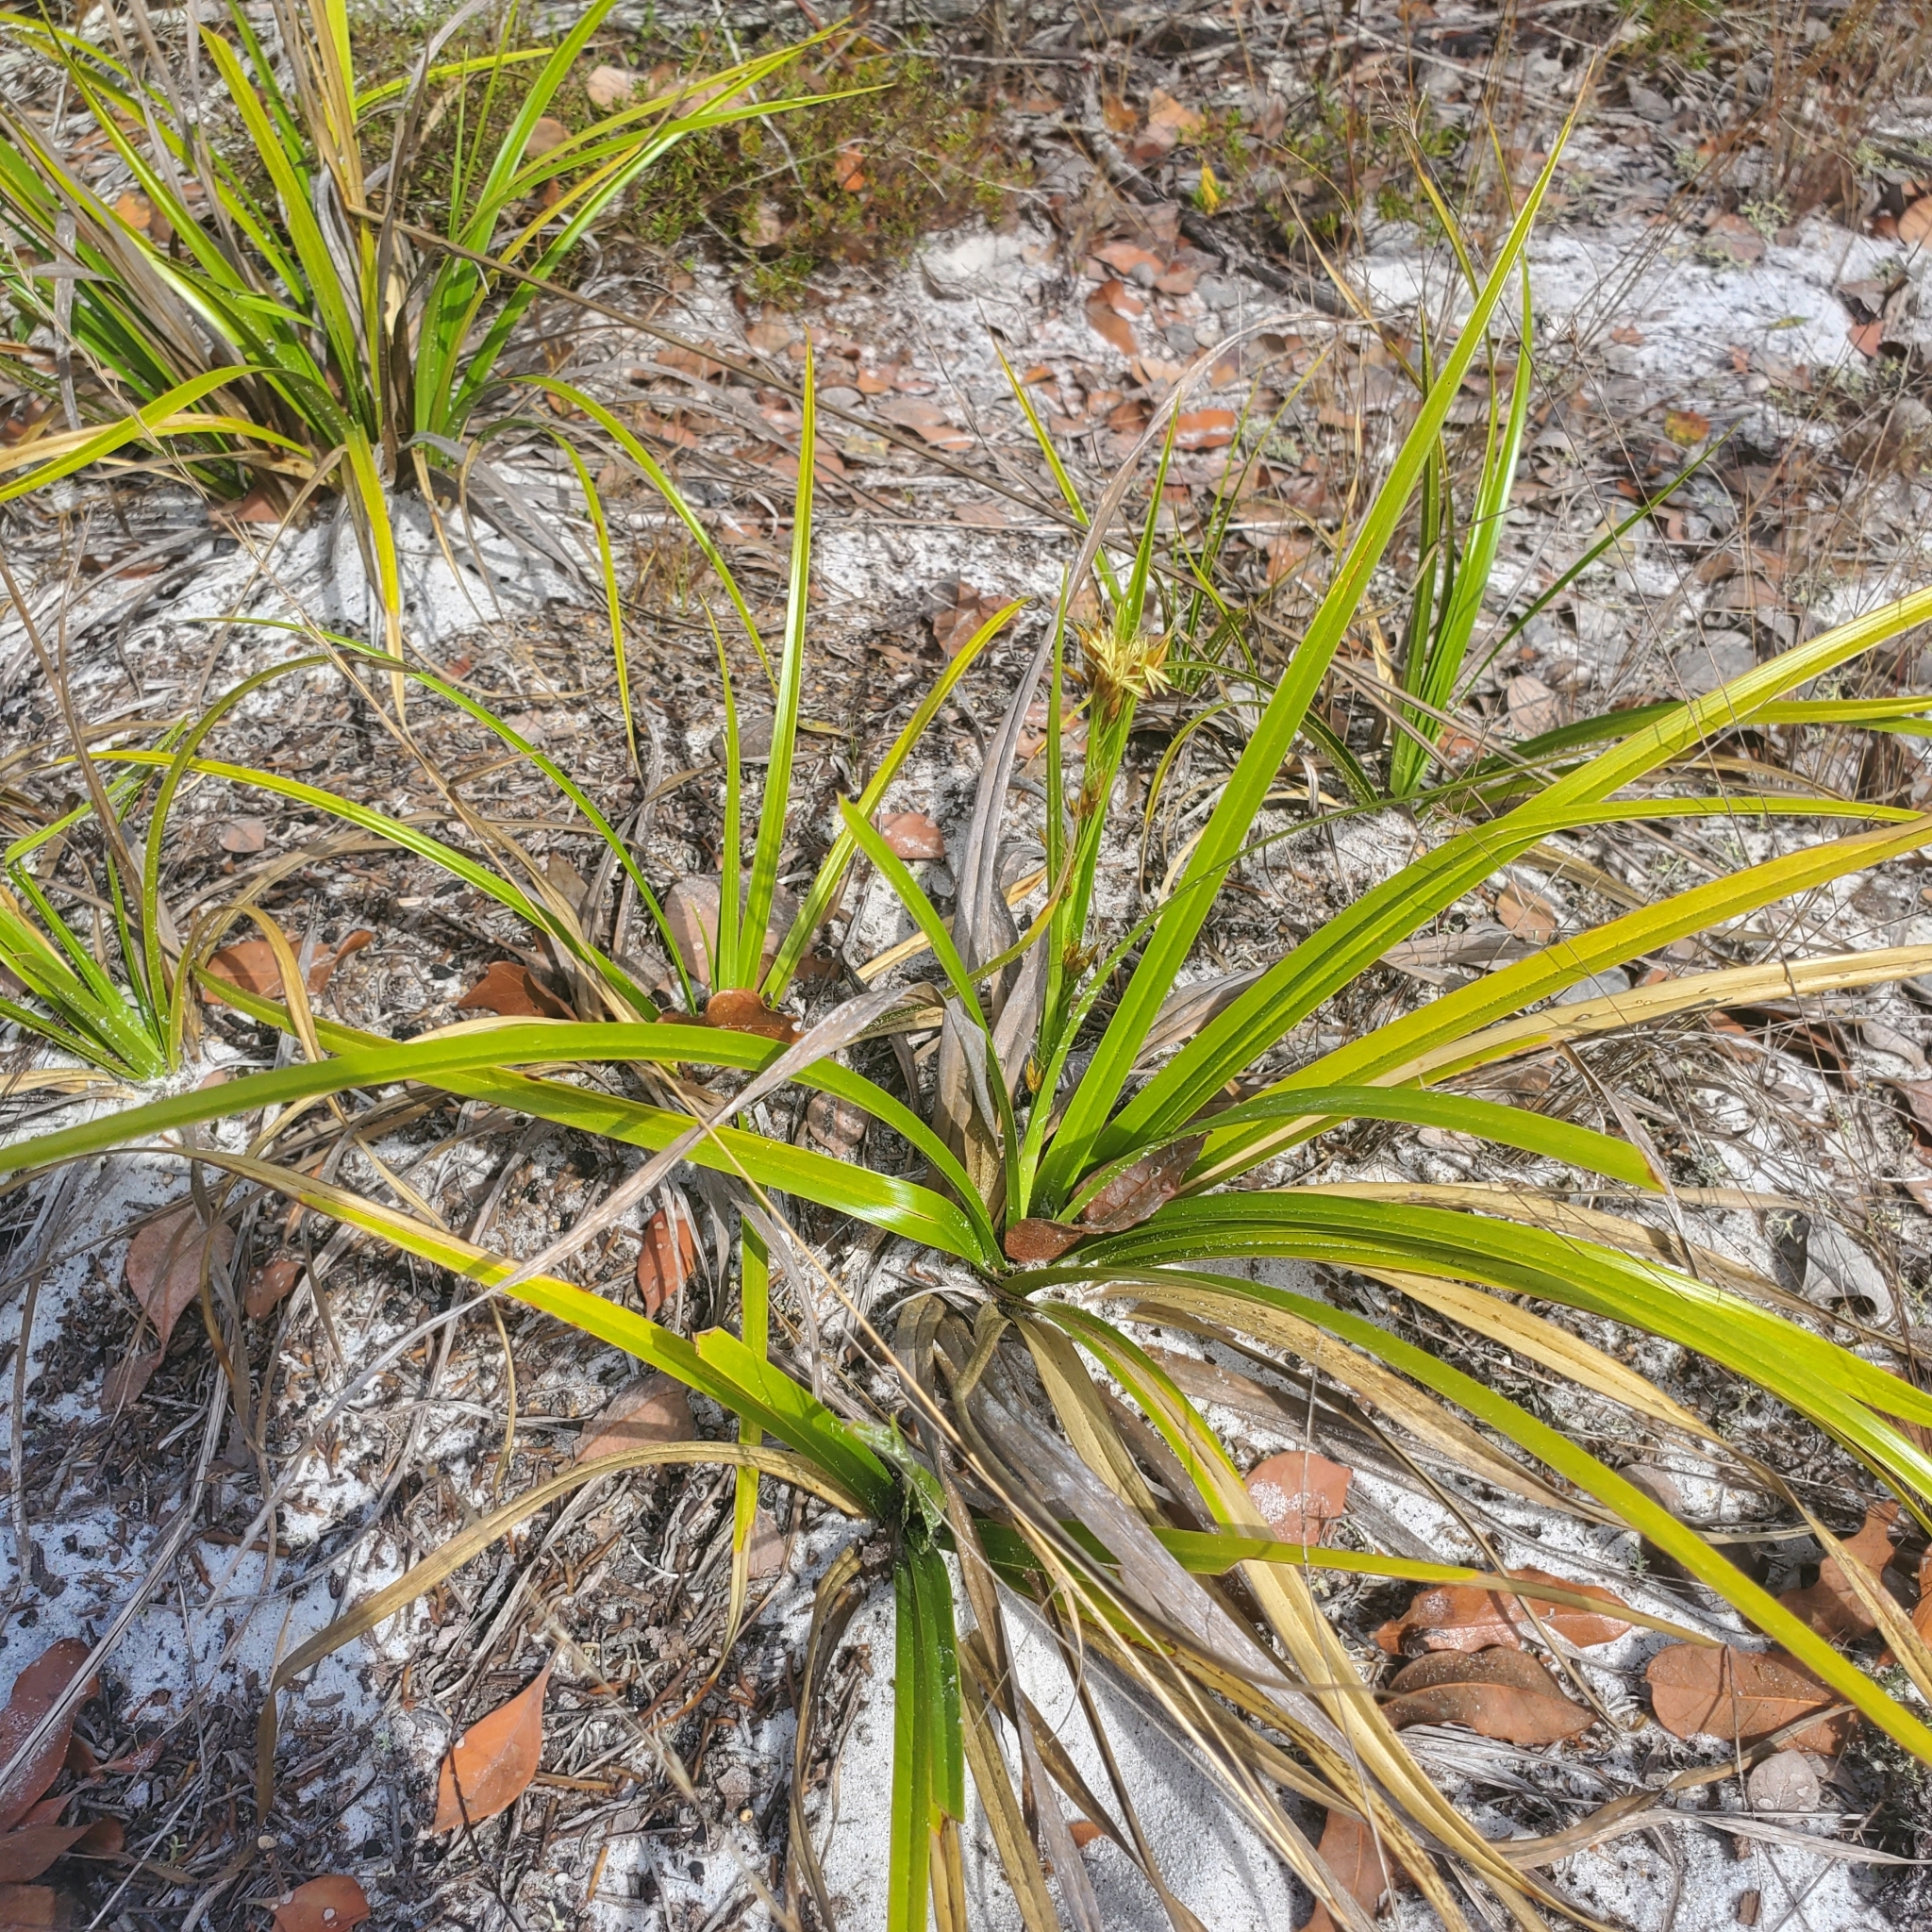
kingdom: Plantae
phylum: Tracheophyta
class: Liliopsida
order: Poales
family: Cyperaceae
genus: Rhynchospora
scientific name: Rhynchospora megalocarpa
